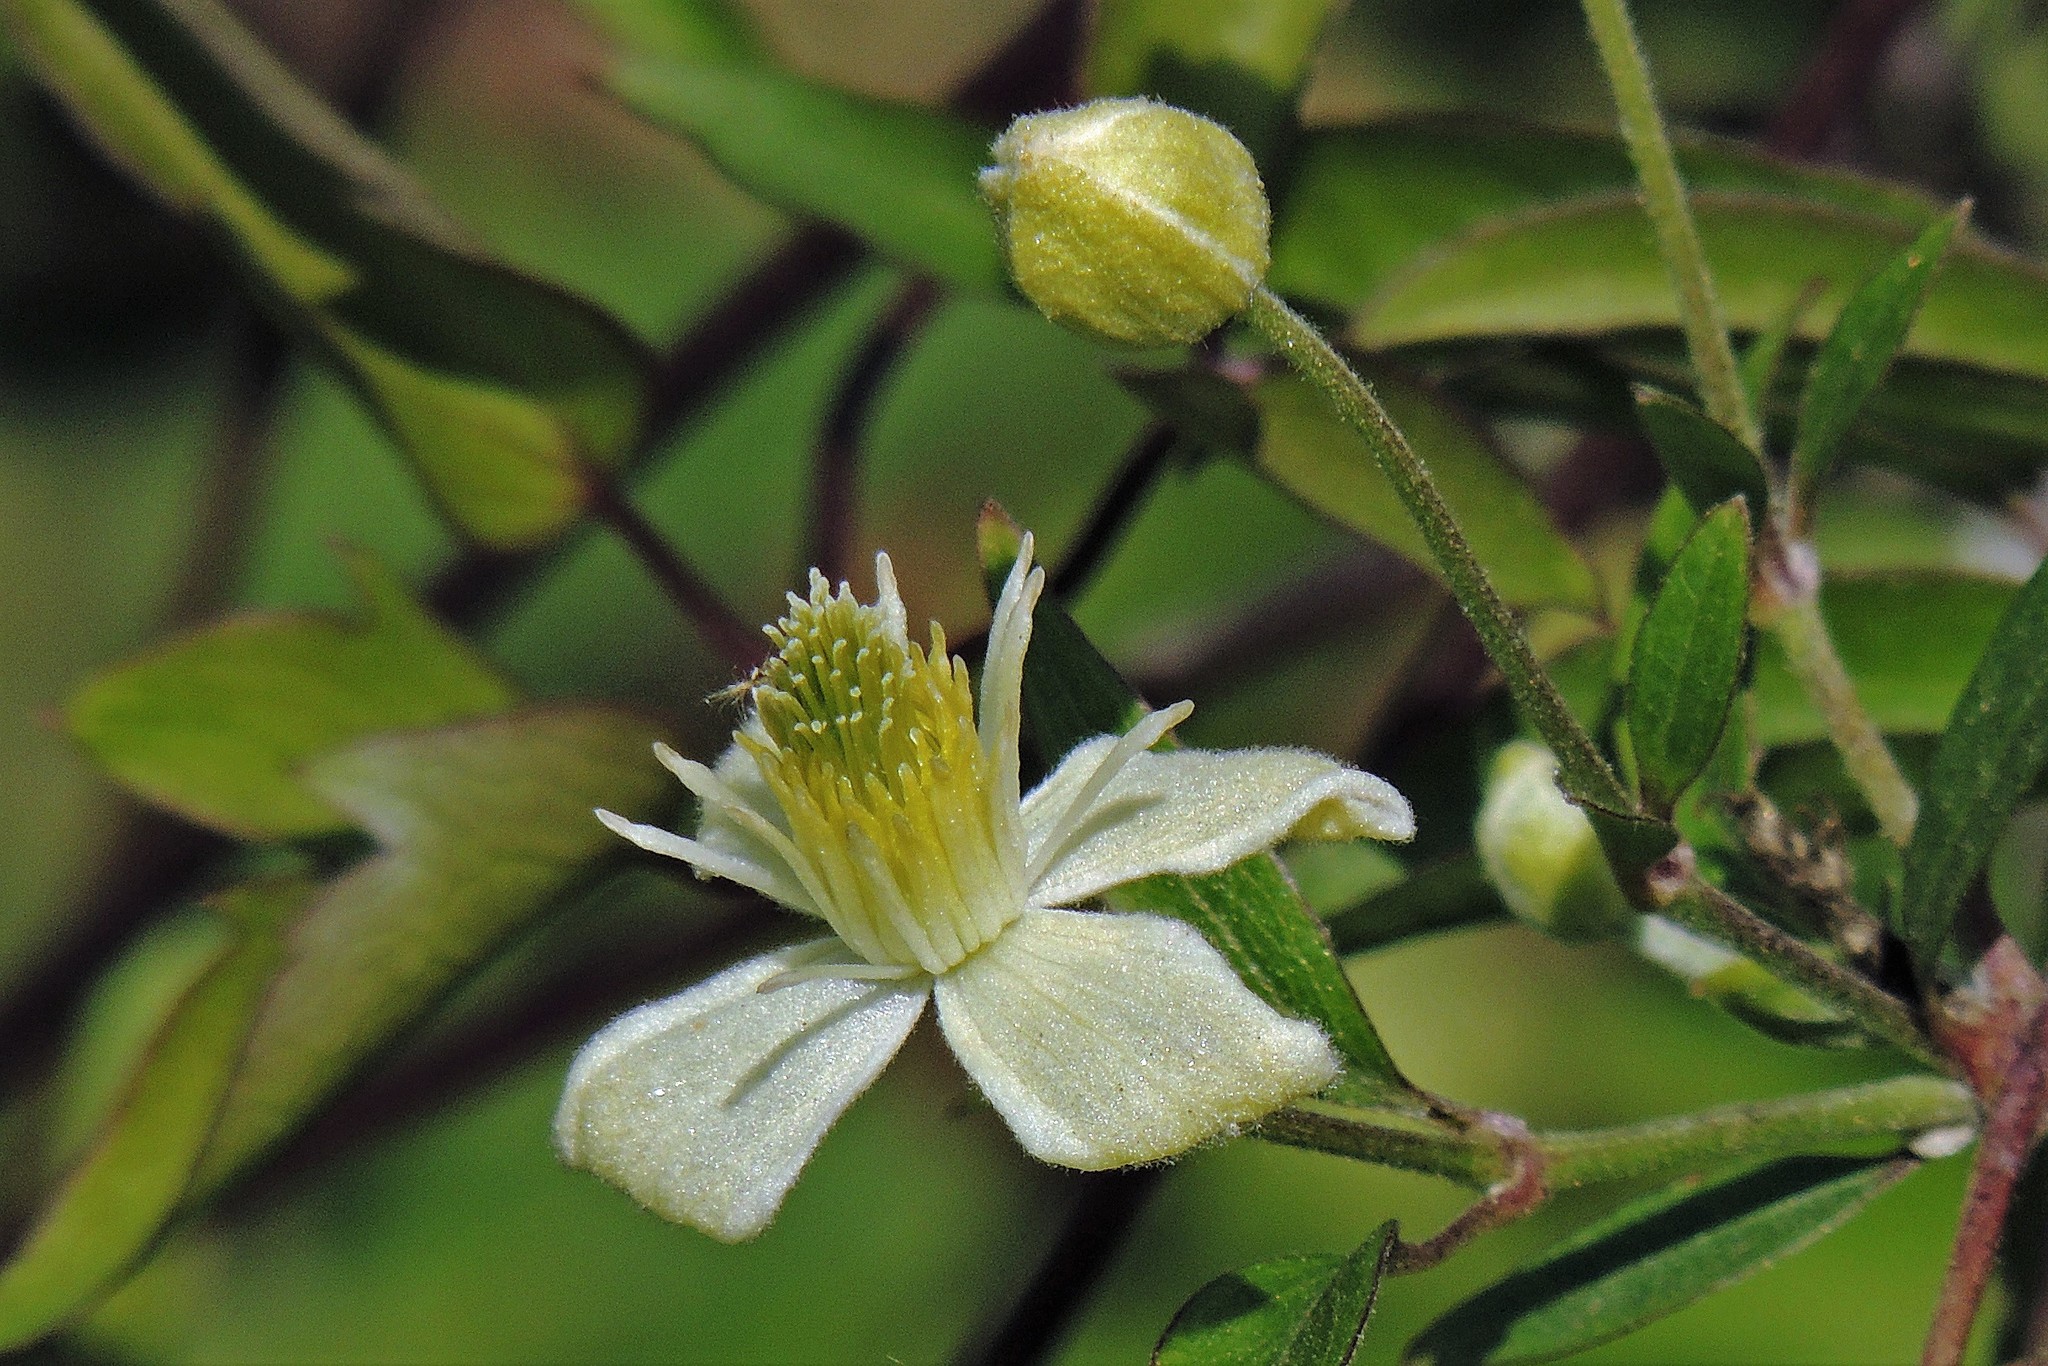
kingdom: Plantae
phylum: Tracheophyta
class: Magnoliopsida
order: Ranunculales
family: Ranunculaceae
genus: Clematis
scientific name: Clematis montevidensis
